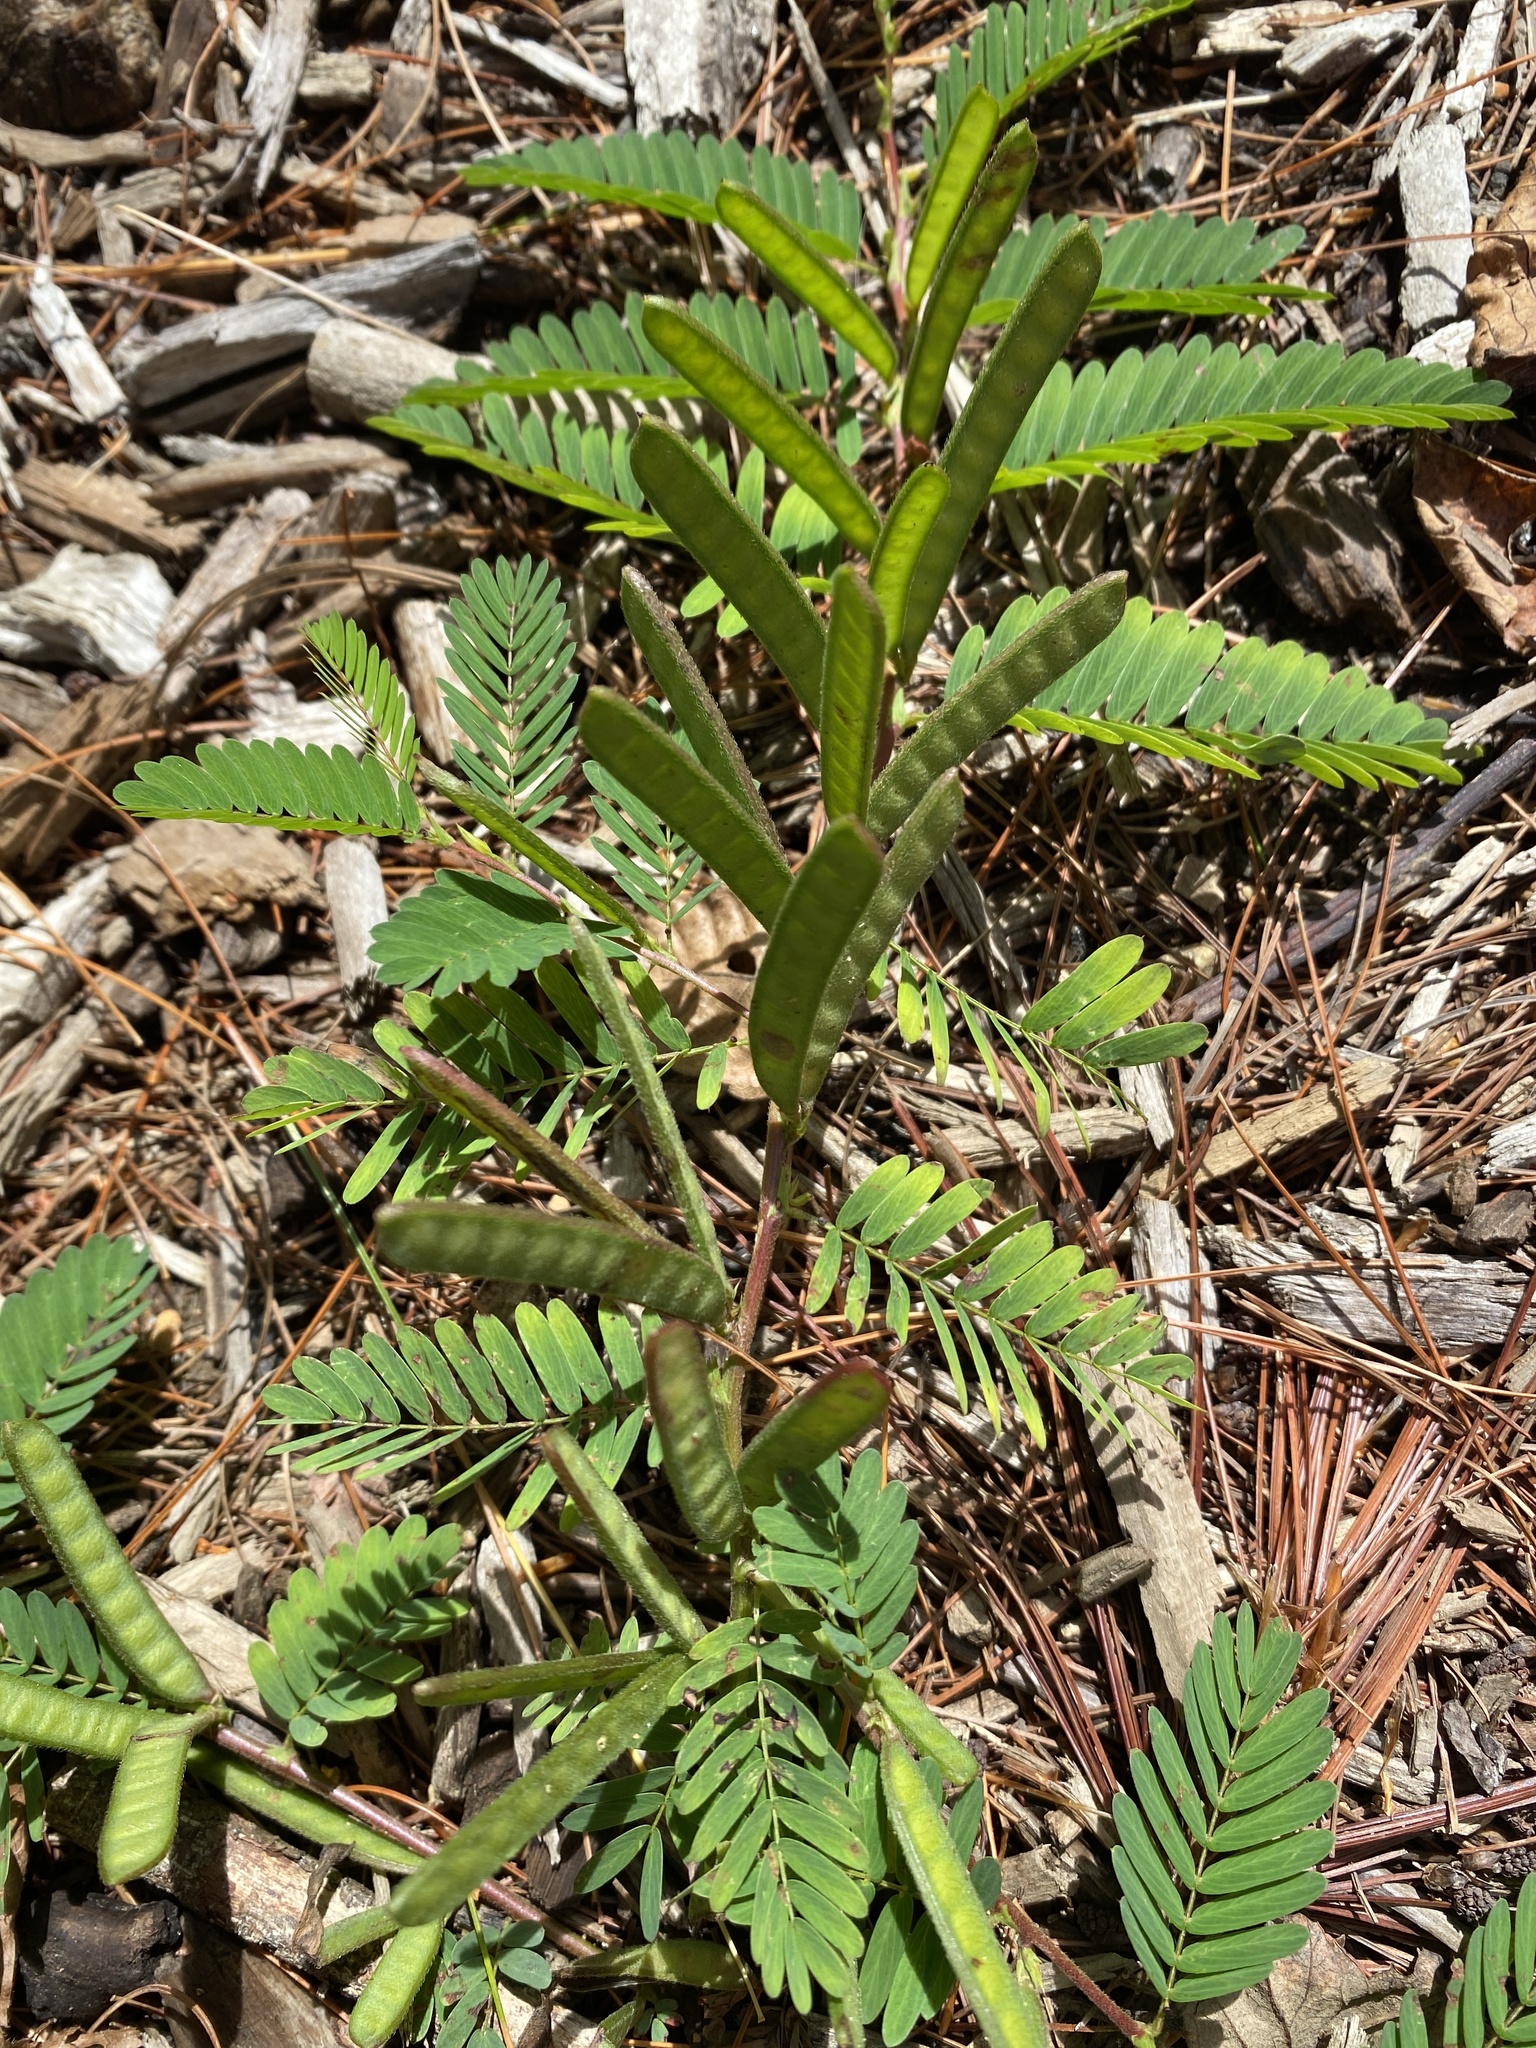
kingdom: Plantae
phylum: Tracheophyta
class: Magnoliopsida
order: Fabales
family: Fabaceae
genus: Chamaecrista
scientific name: Chamaecrista nictitans
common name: Sensitive cassia
